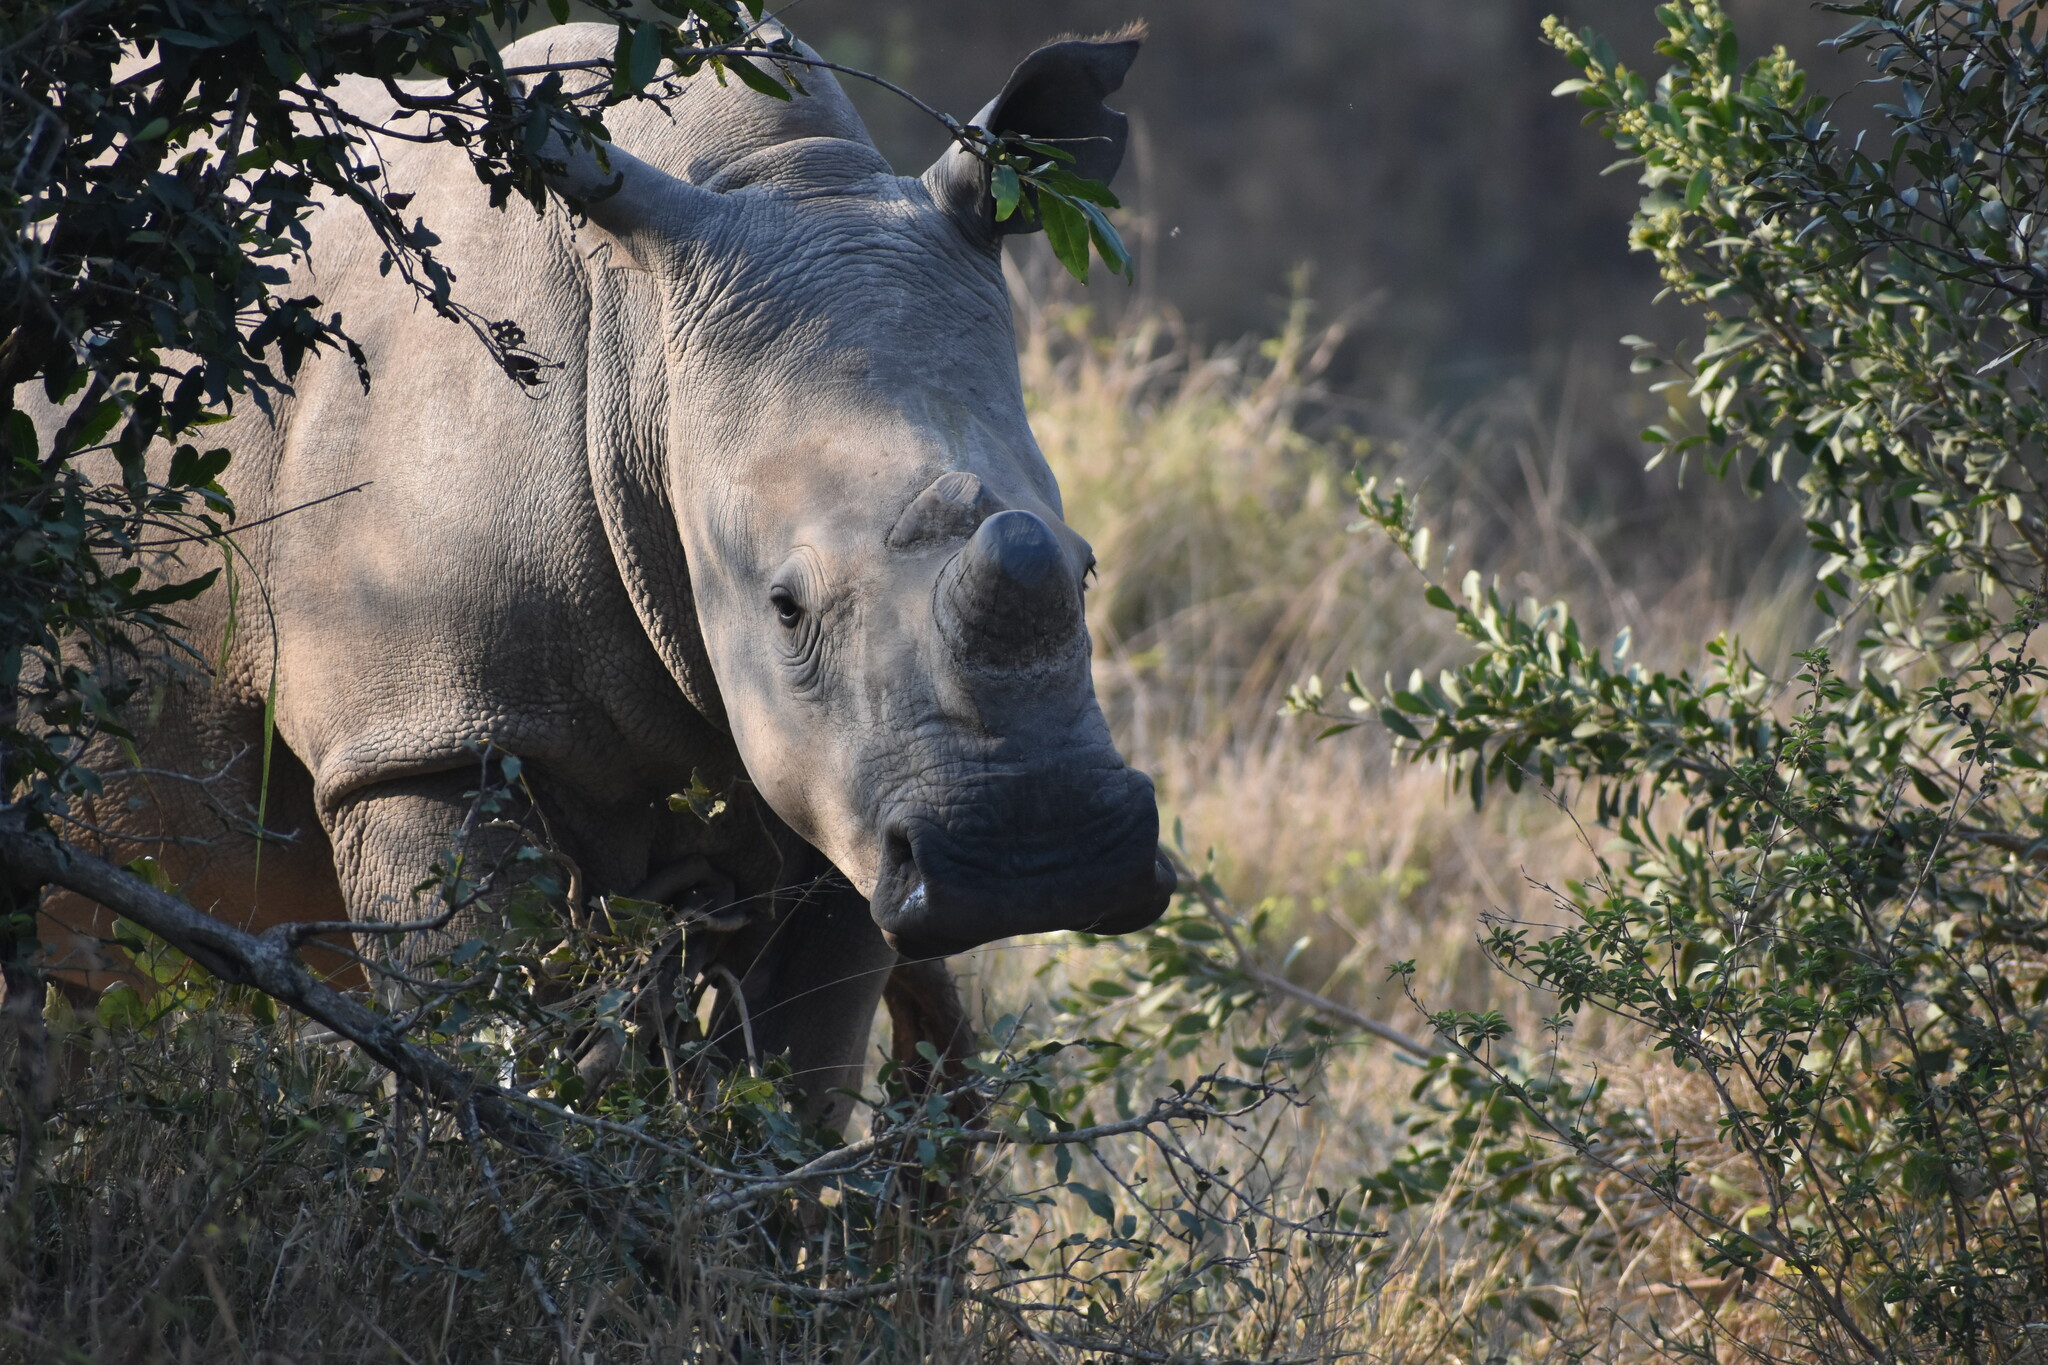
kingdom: Animalia
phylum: Chordata
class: Mammalia
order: Perissodactyla
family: Rhinocerotidae
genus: Ceratotherium
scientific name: Ceratotherium simum
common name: White rhinoceros
